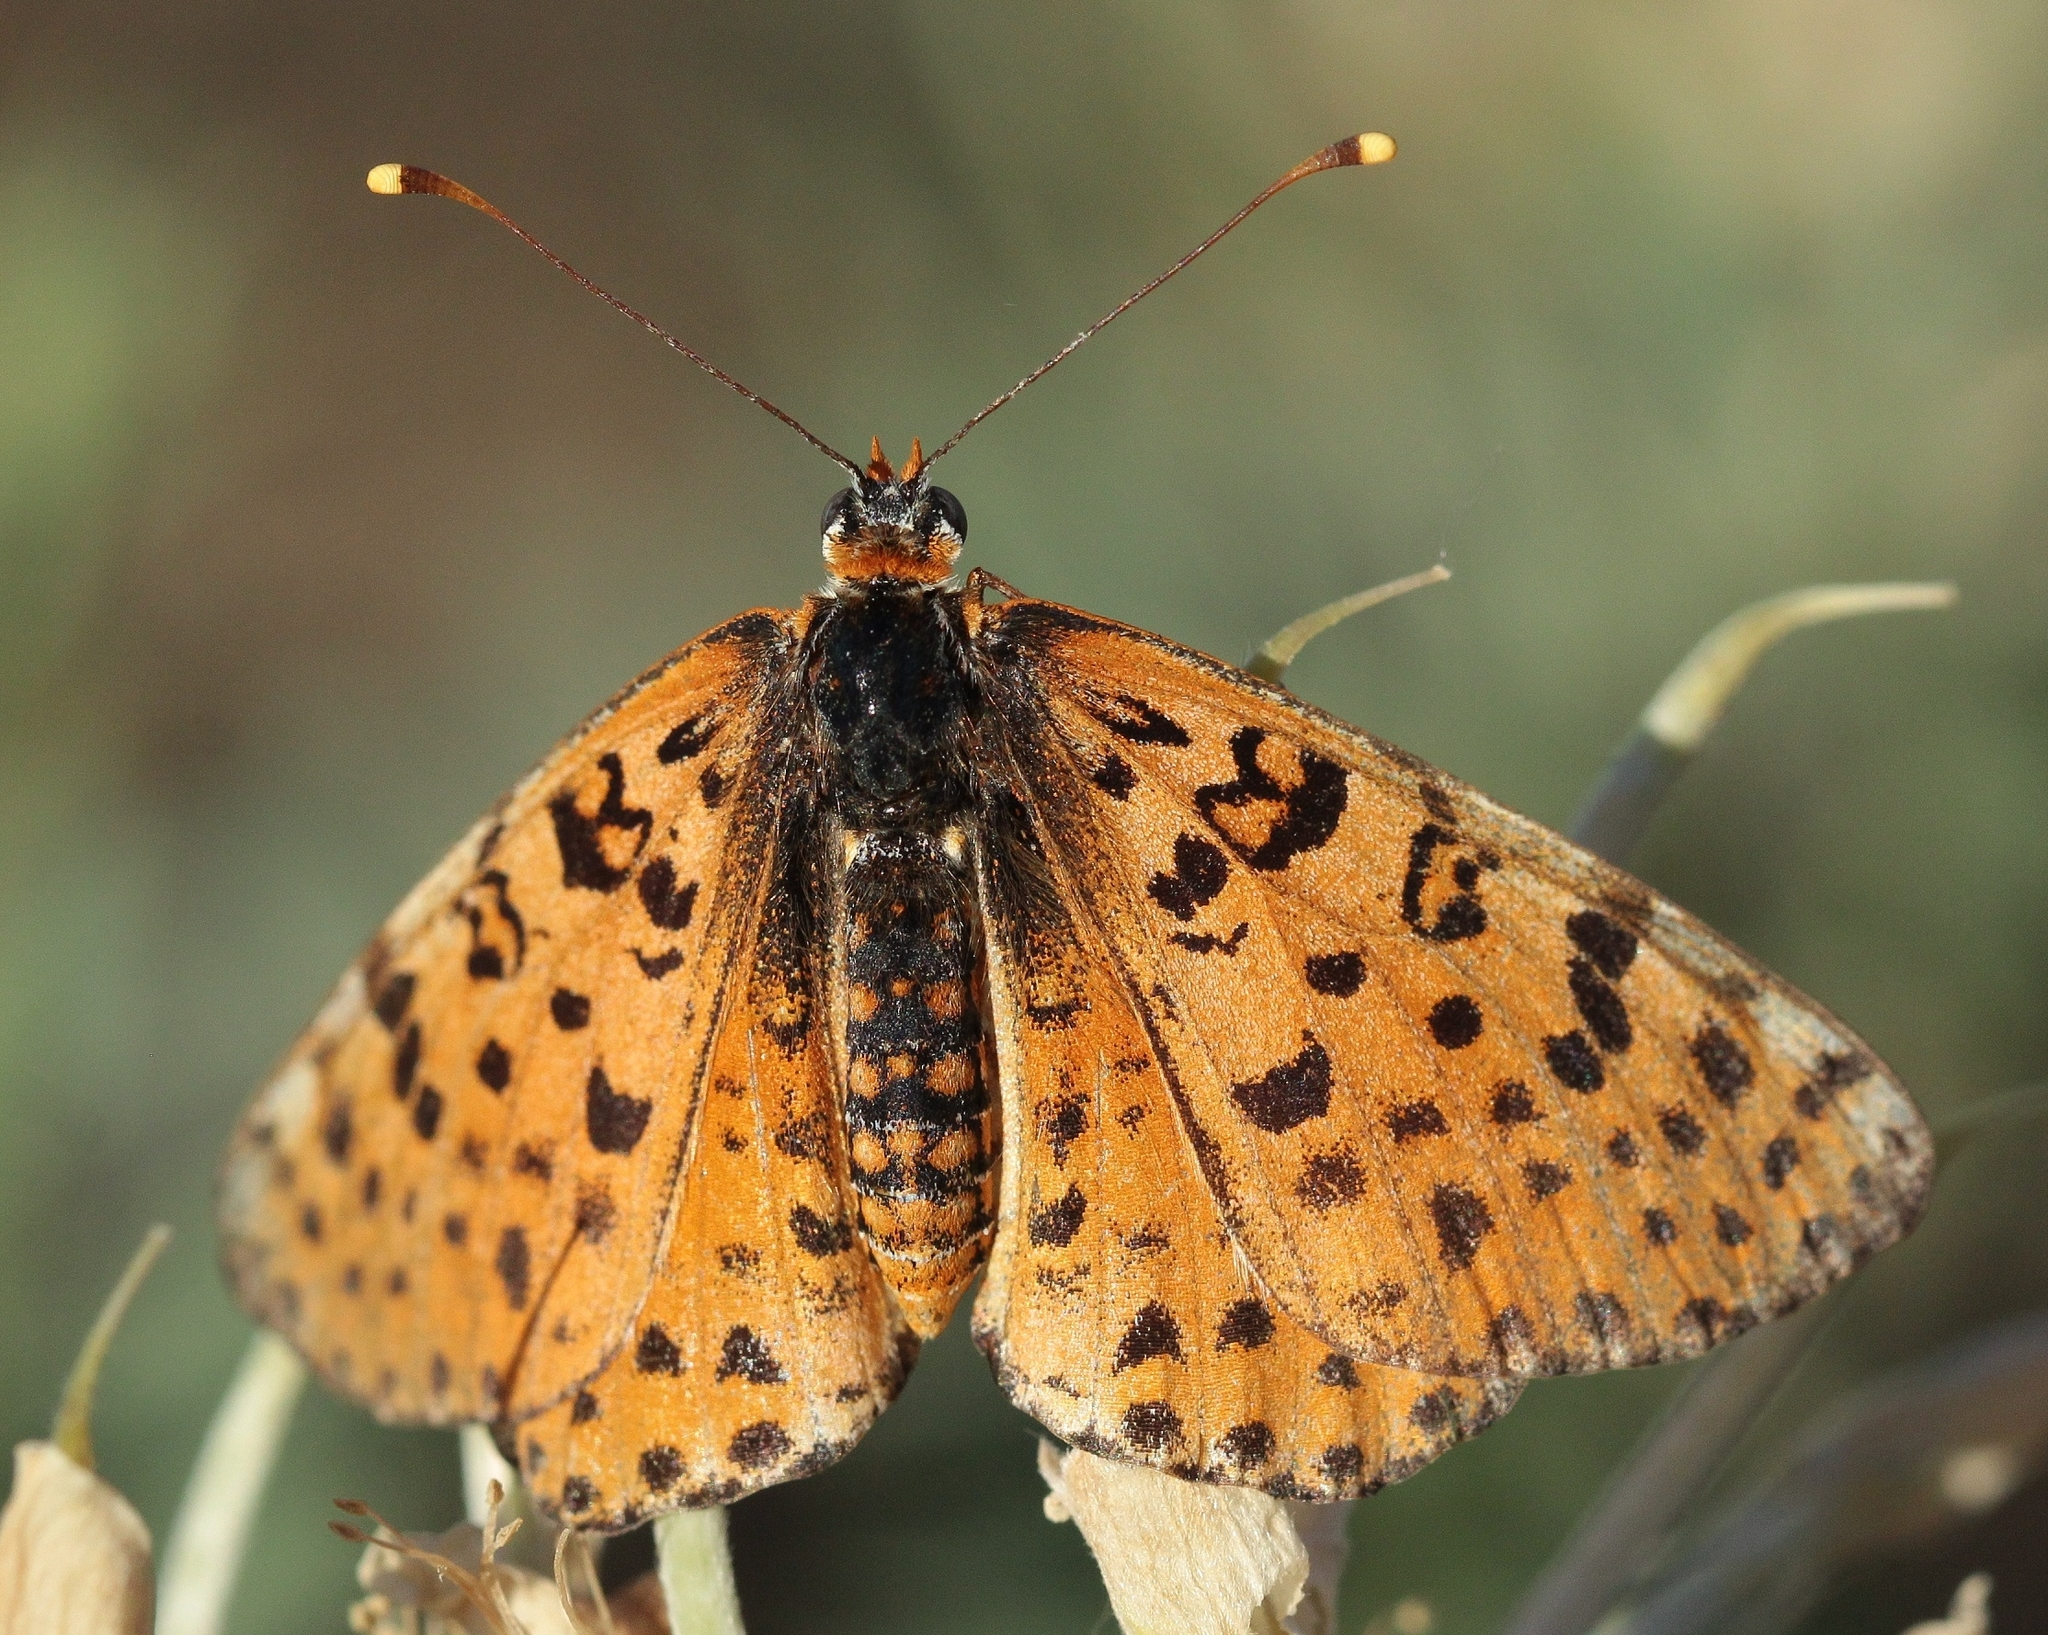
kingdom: Animalia
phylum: Arthropoda
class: Insecta
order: Lepidoptera
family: Nymphalidae
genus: Melitaea
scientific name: Melitaea didyma
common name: Spotted fritillary
